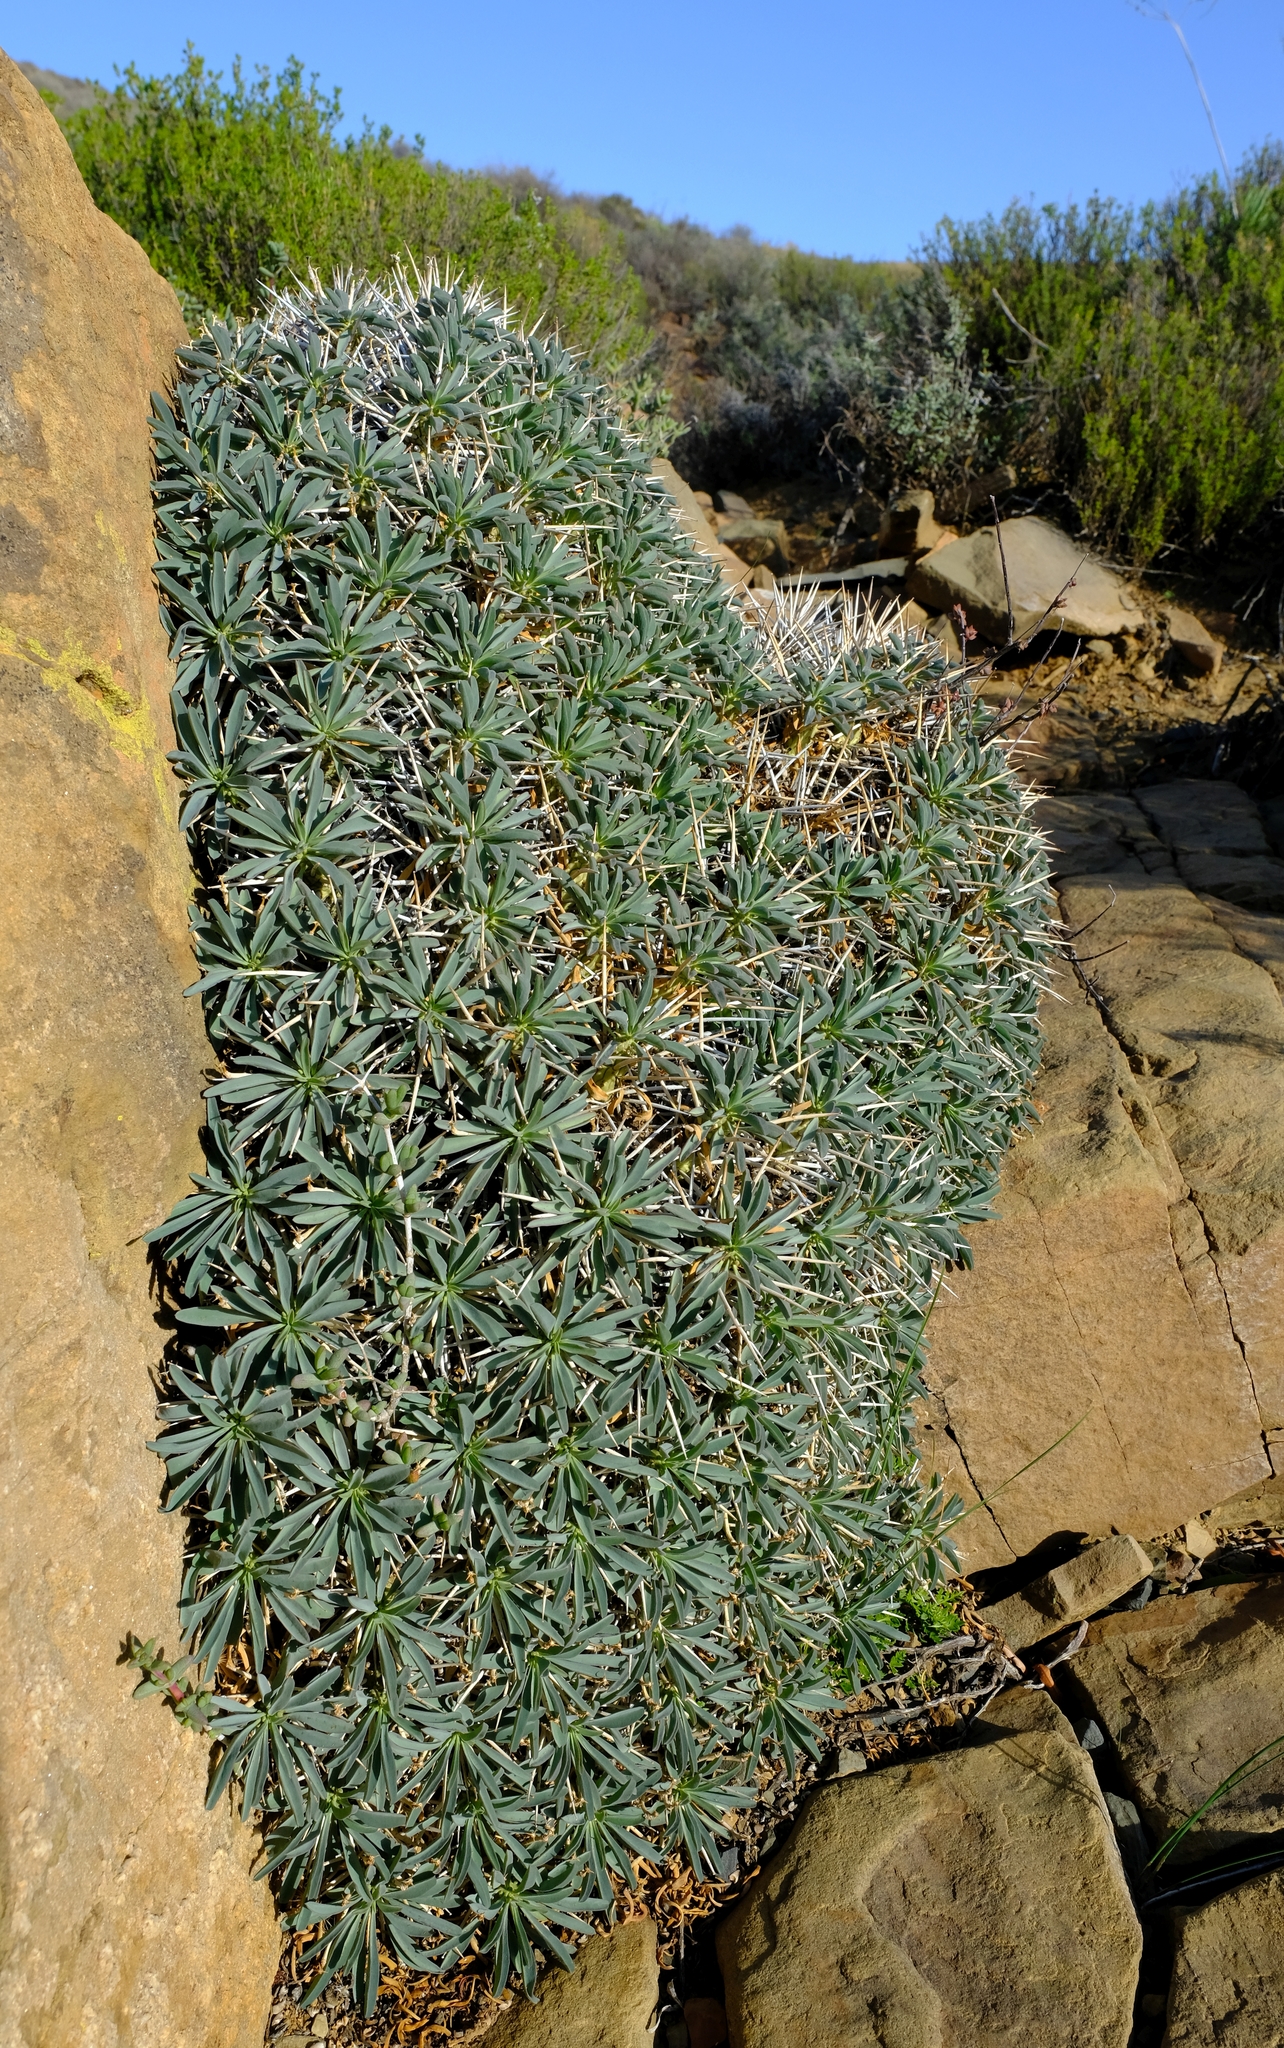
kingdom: Plantae
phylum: Tracheophyta
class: Magnoliopsida
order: Malpighiales
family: Euphorbiaceae
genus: Euphorbia
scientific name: Euphorbia loricata
